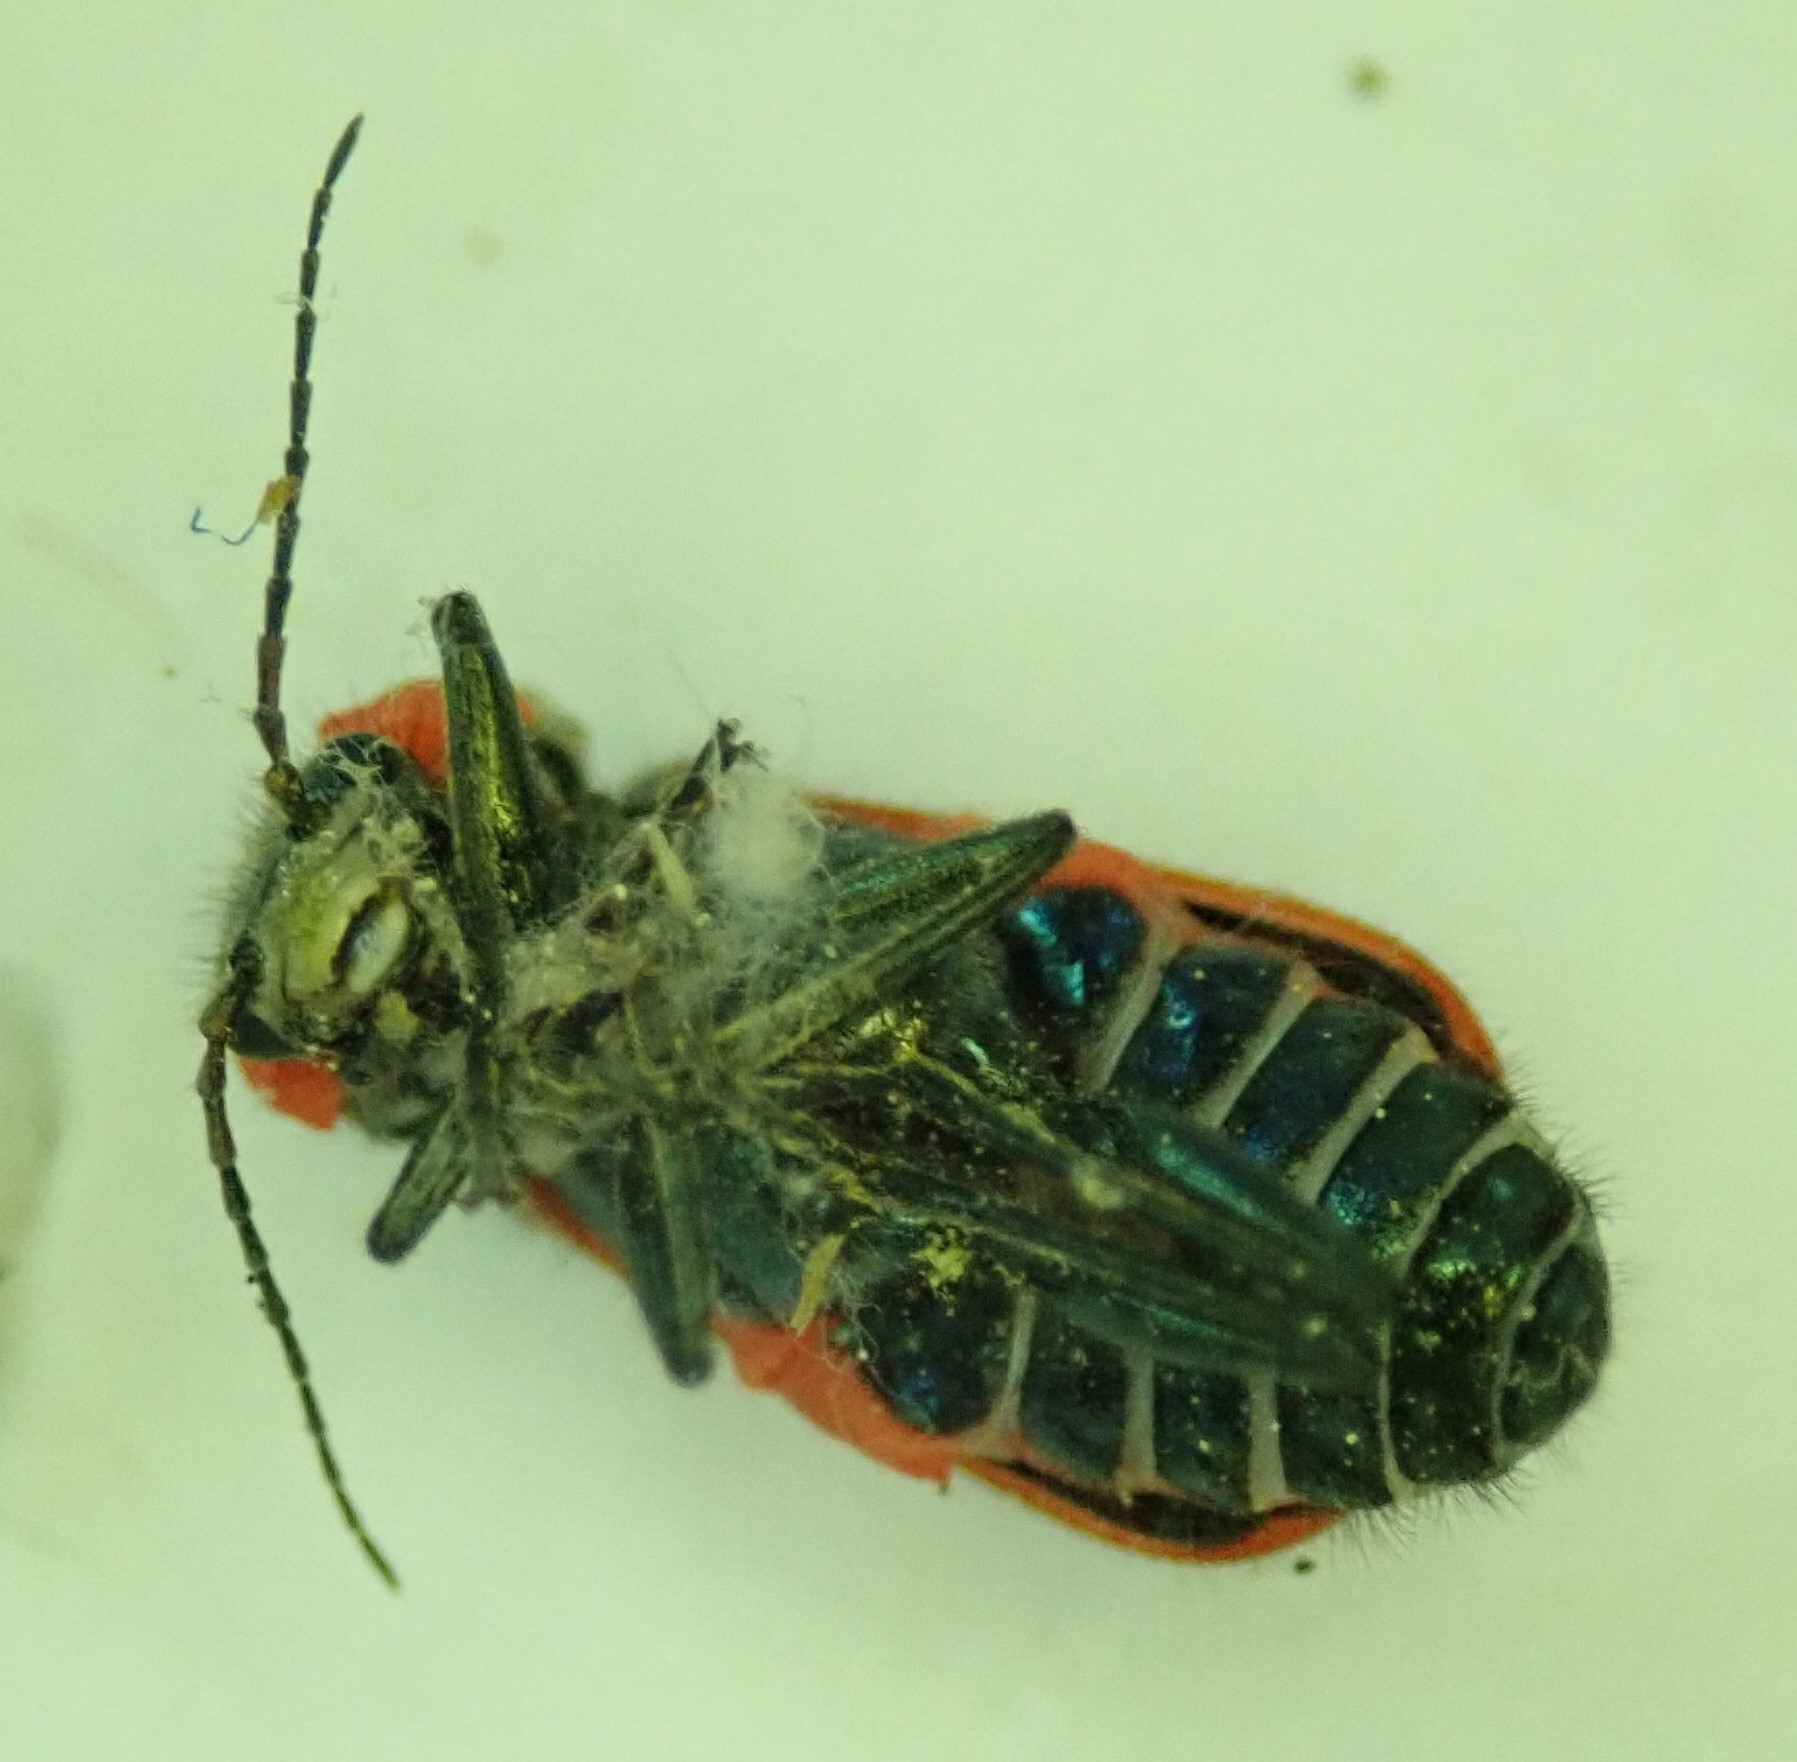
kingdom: Animalia
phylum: Arthropoda
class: Insecta
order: Coleoptera
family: Melyridae
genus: Malachius
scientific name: Malachius aeneus
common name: Scarlet malachite beetle
